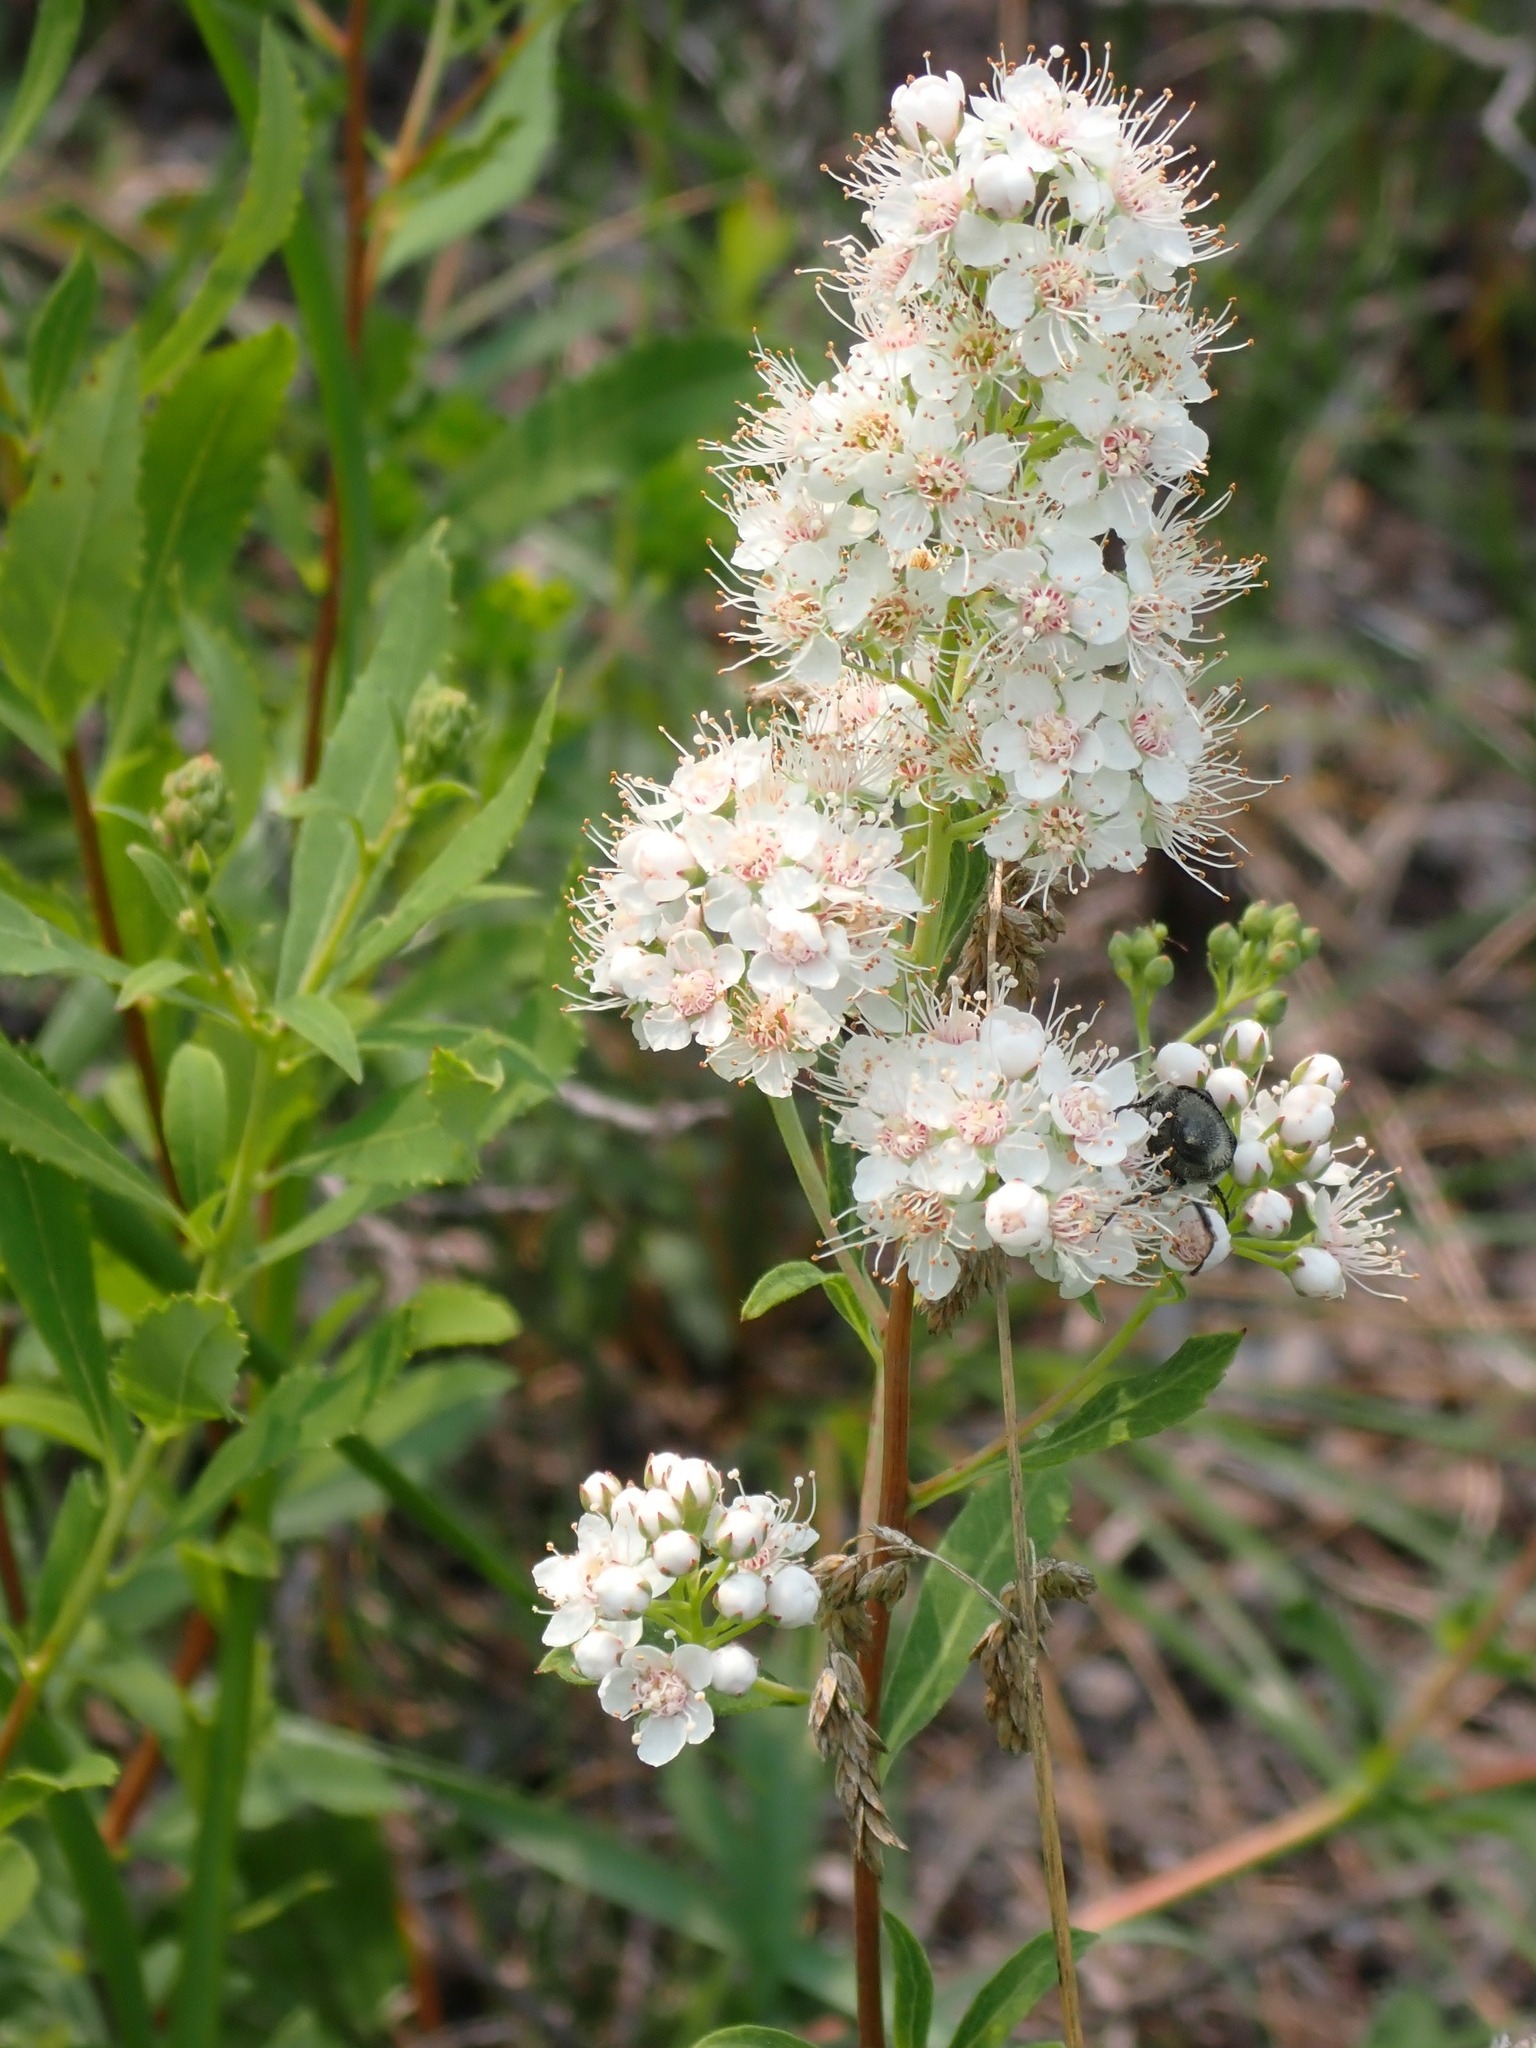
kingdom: Plantae
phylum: Tracheophyta
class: Magnoliopsida
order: Rosales
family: Rosaceae
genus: Spiraea
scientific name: Spiraea alba
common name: Pale bridewort
